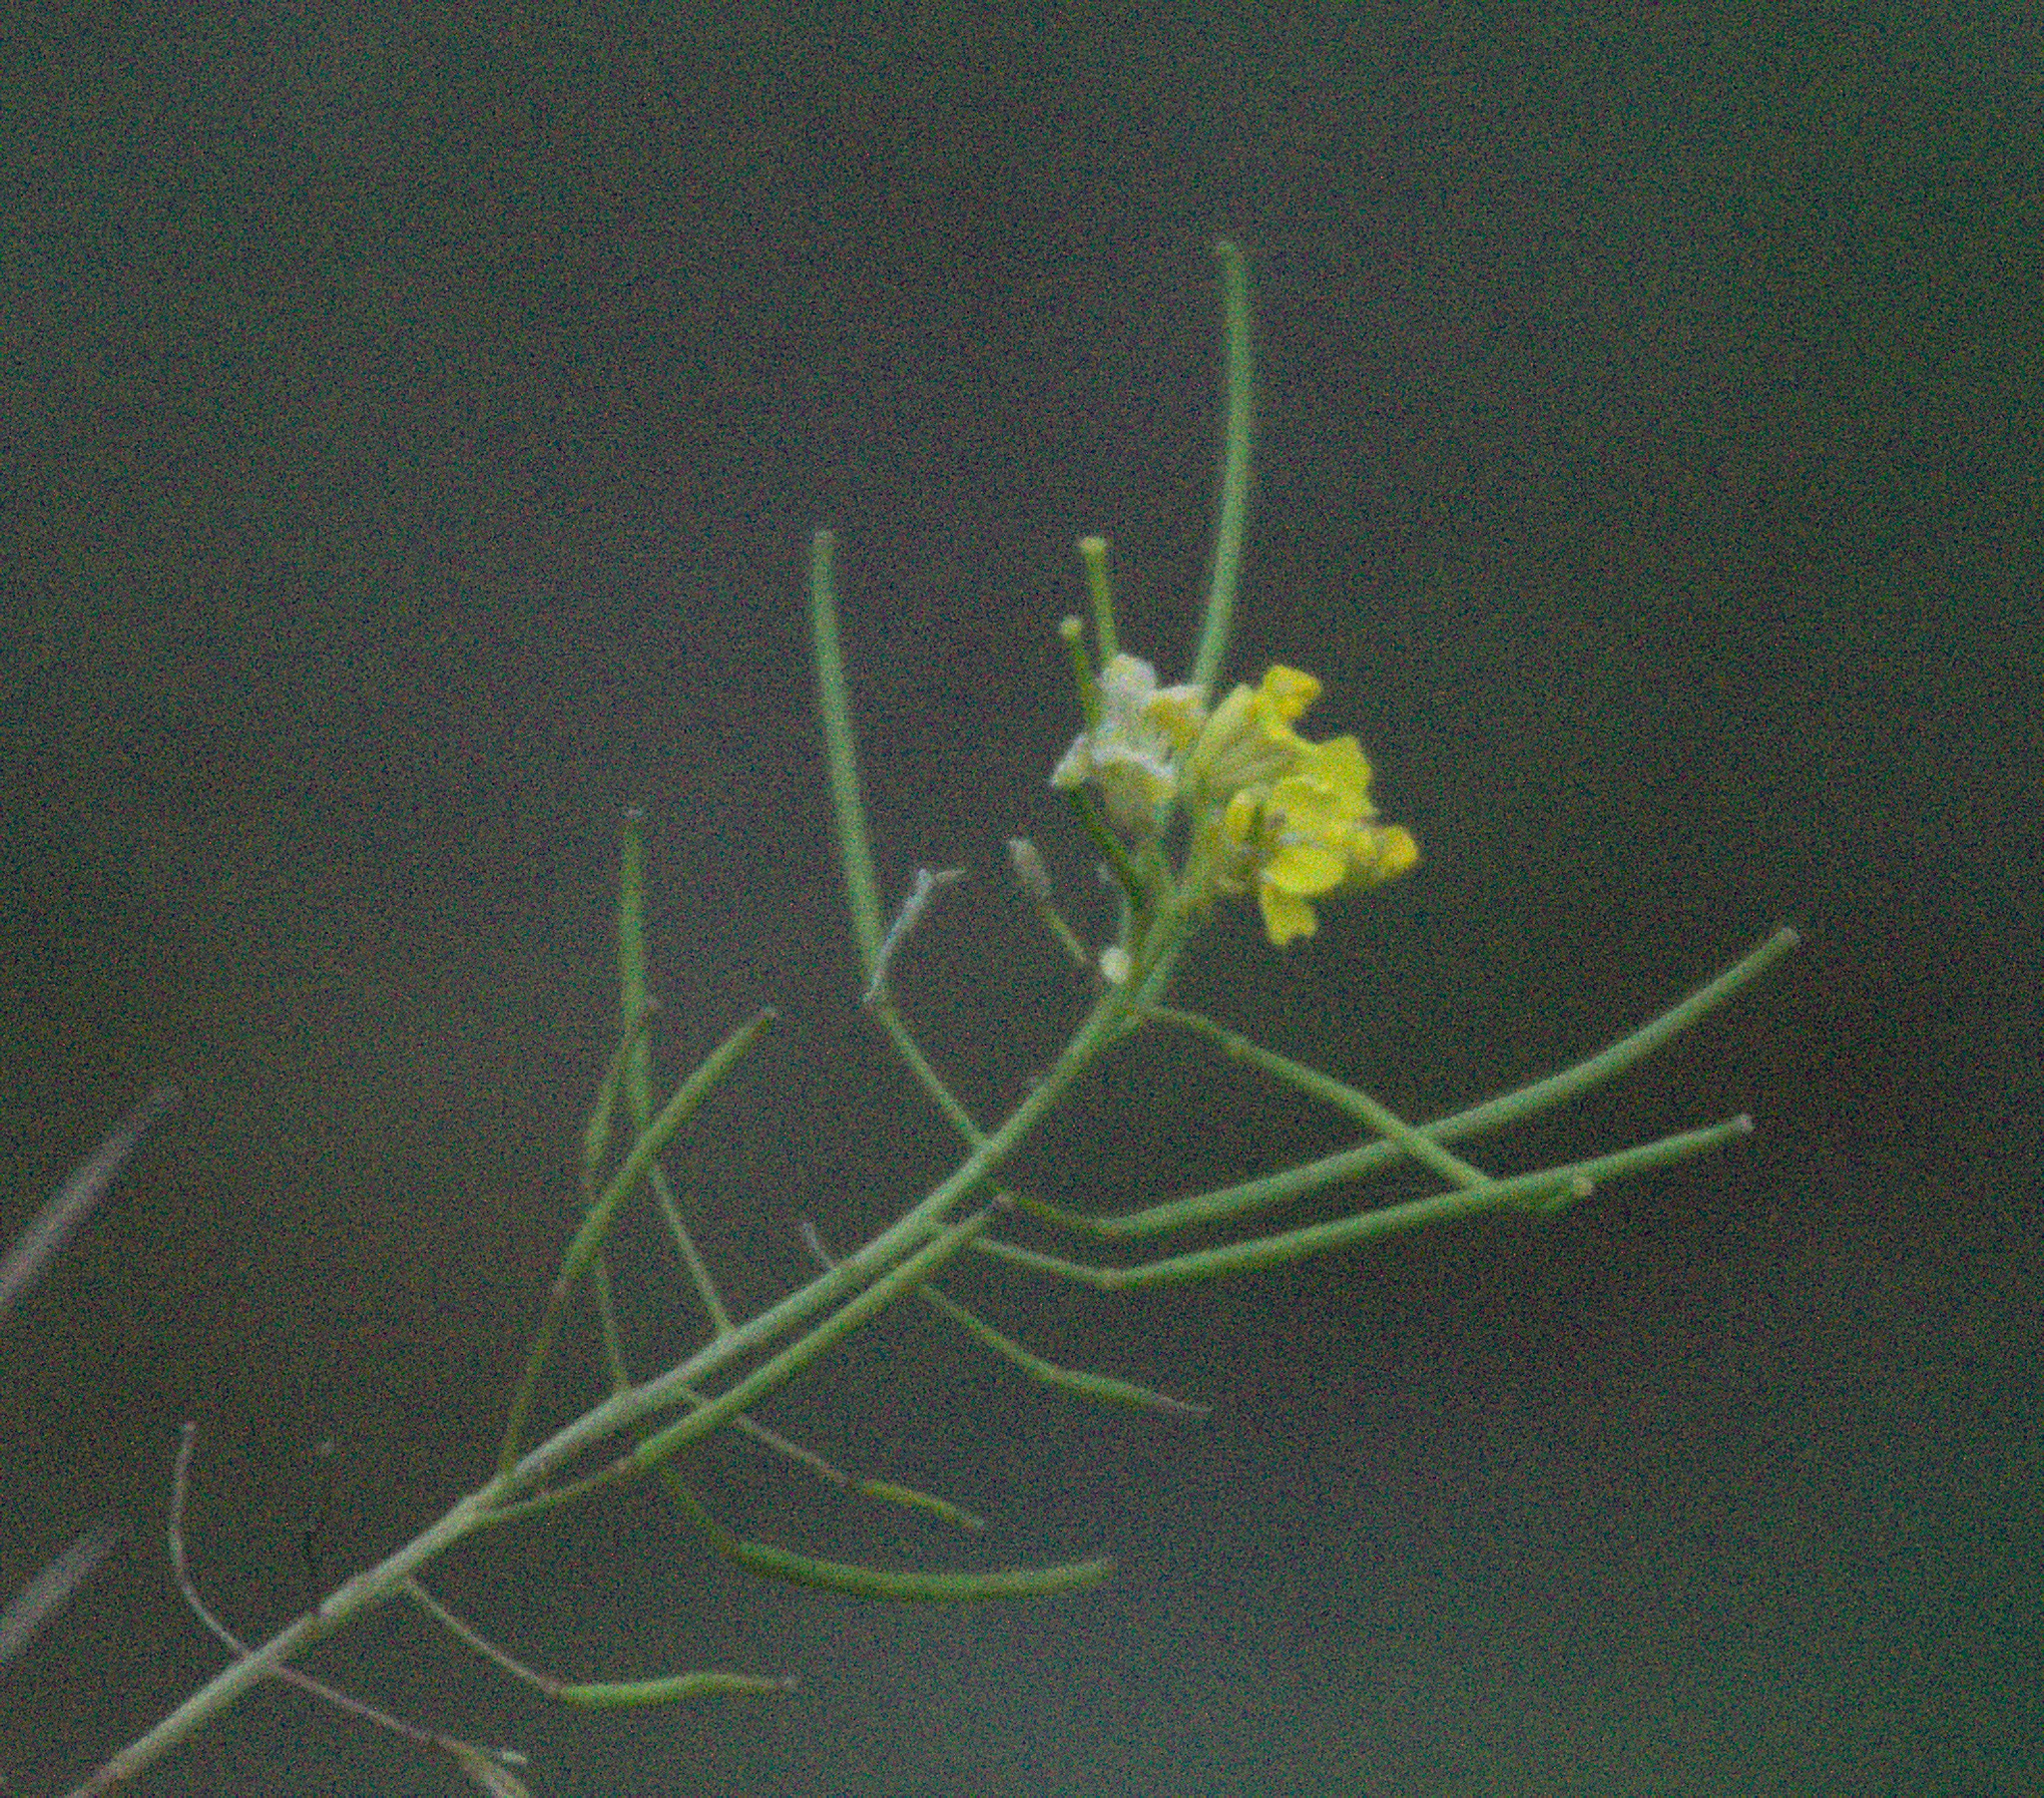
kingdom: Plantae
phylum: Tracheophyta
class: Magnoliopsida
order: Brassicales
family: Brassicaceae
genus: Sisymbrium
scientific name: Sisymbrium loeselii
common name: False london-rocket
